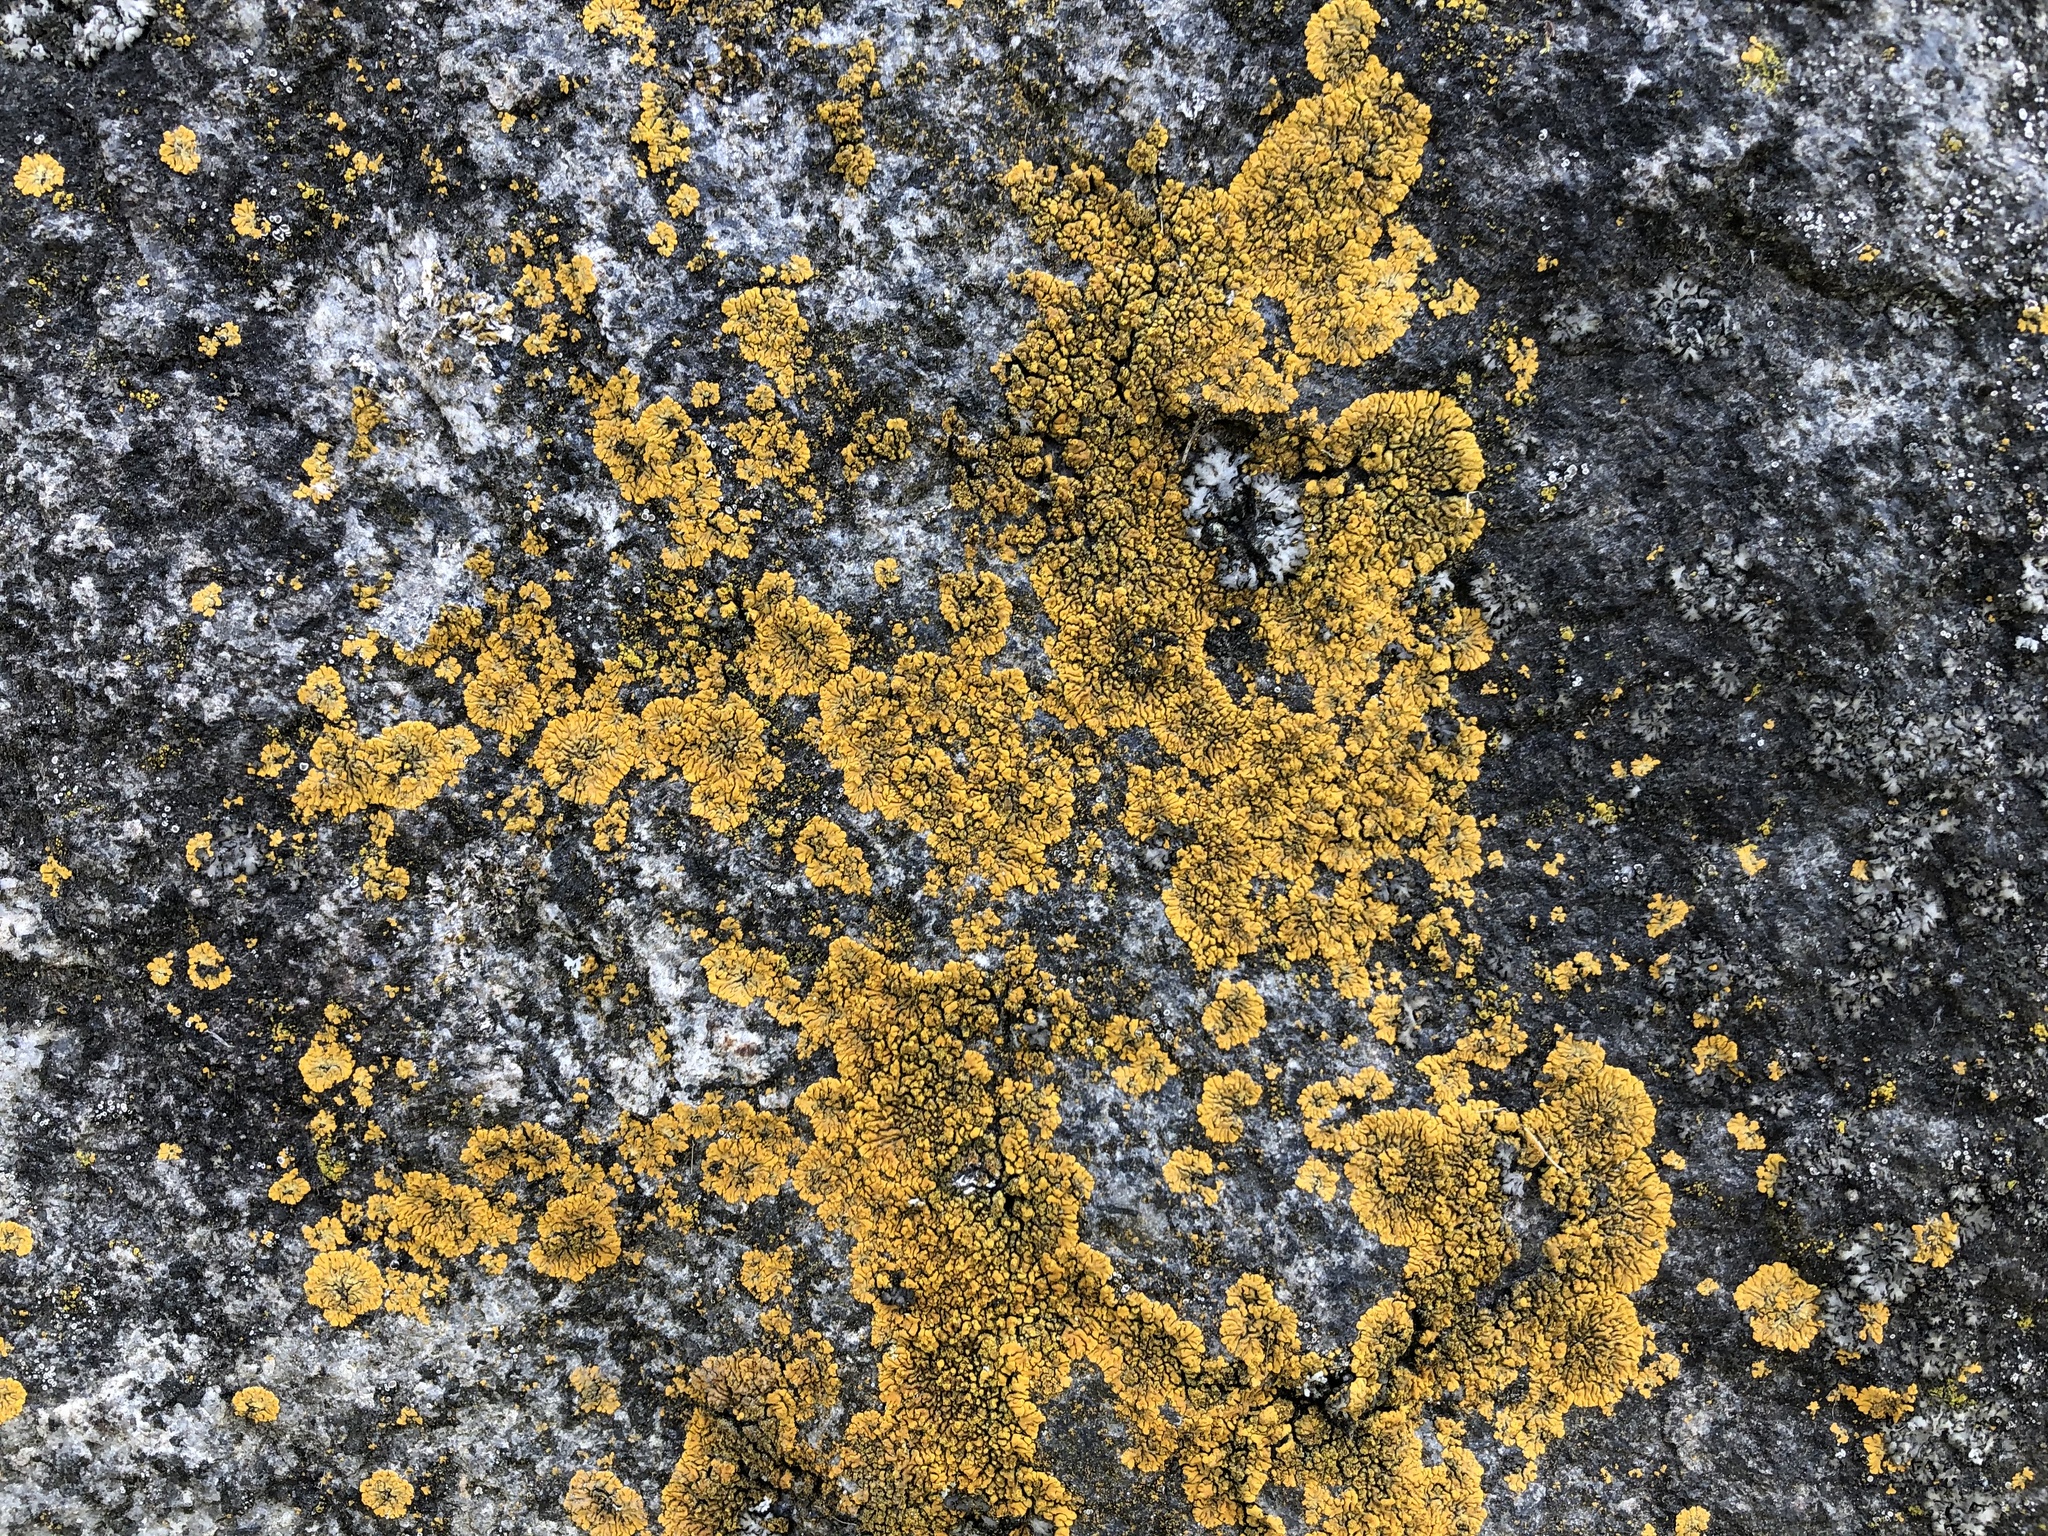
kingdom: Fungi
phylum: Ascomycota
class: Lecanoromycetes
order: Teloschistales
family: Teloschistaceae
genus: Calogaya
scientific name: Calogaya decipiens
